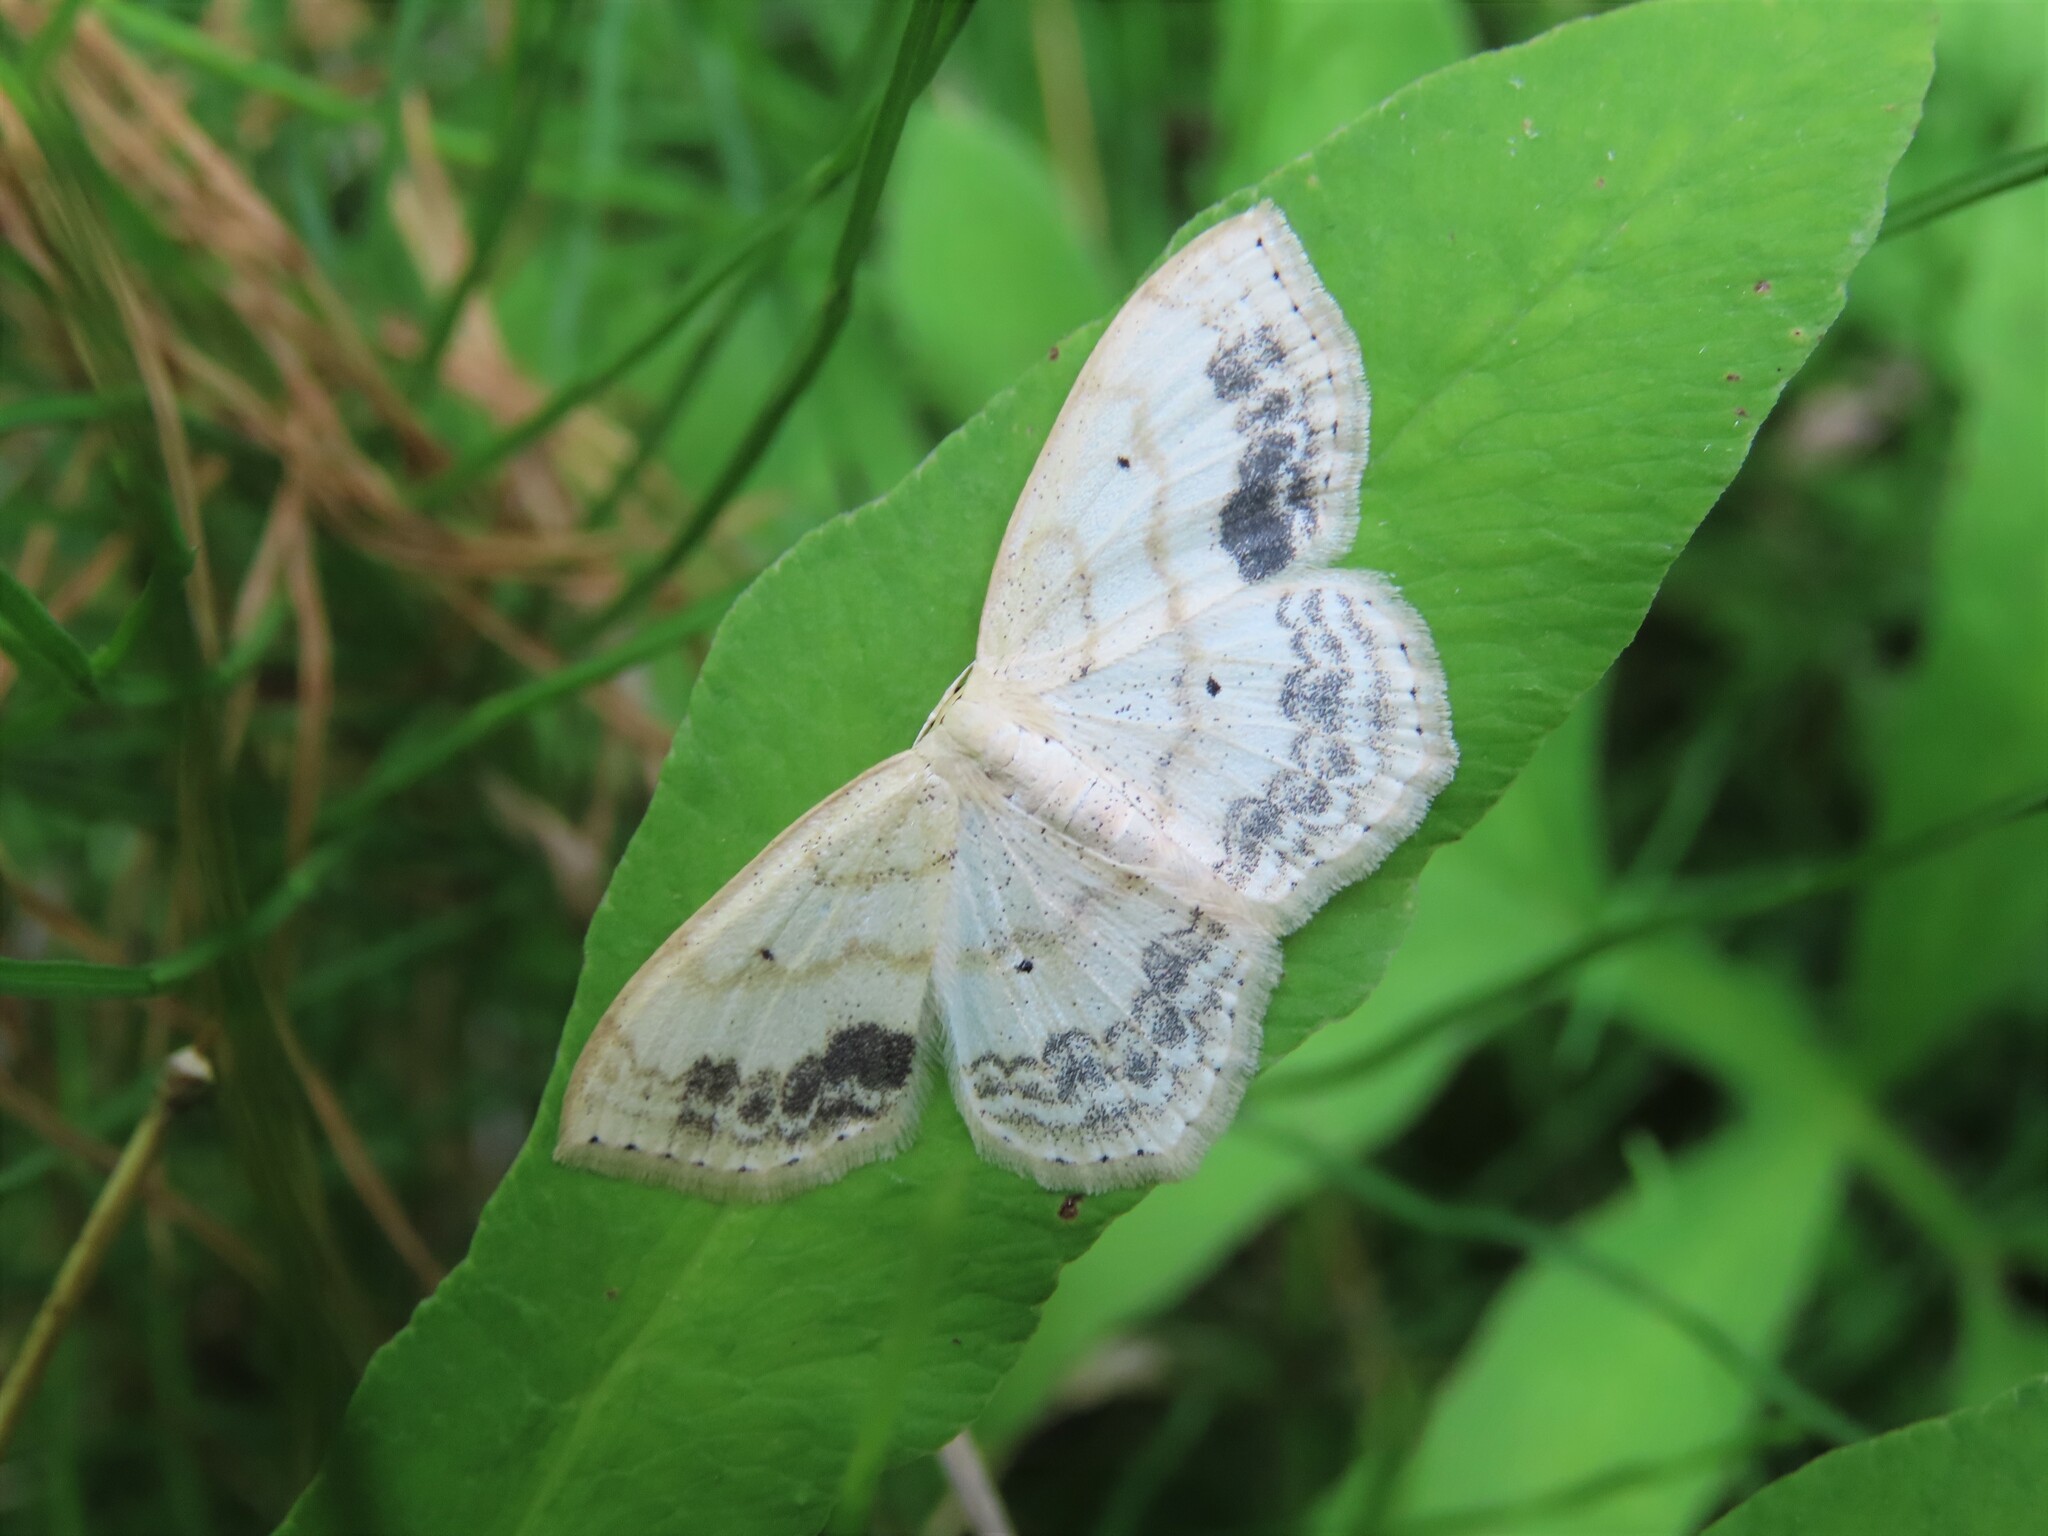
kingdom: Animalia
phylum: Arthropoda
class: Insecta
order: Lepidoptera
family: Geometridae
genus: Scopula
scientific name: Scopula limboundata
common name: Large lace border
